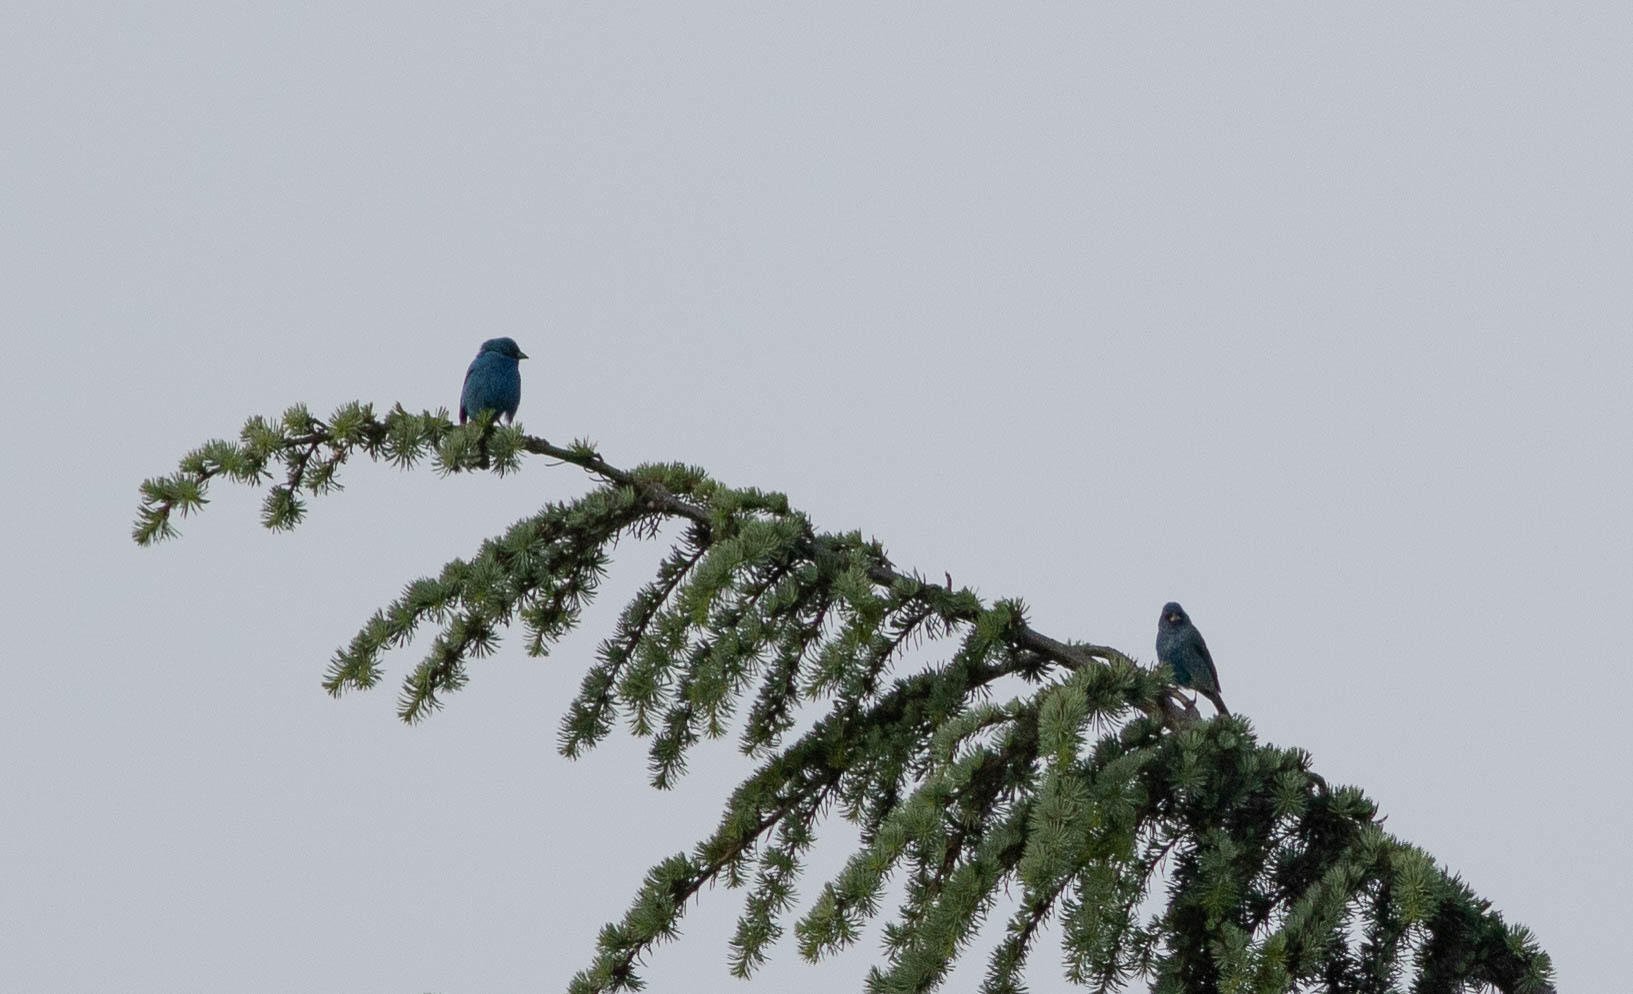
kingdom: Animalia
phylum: Chordata
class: Aves
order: Passeriformes
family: Cardinalidae
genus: Passerina
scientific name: Passerina cyanea
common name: Indigo bunting
